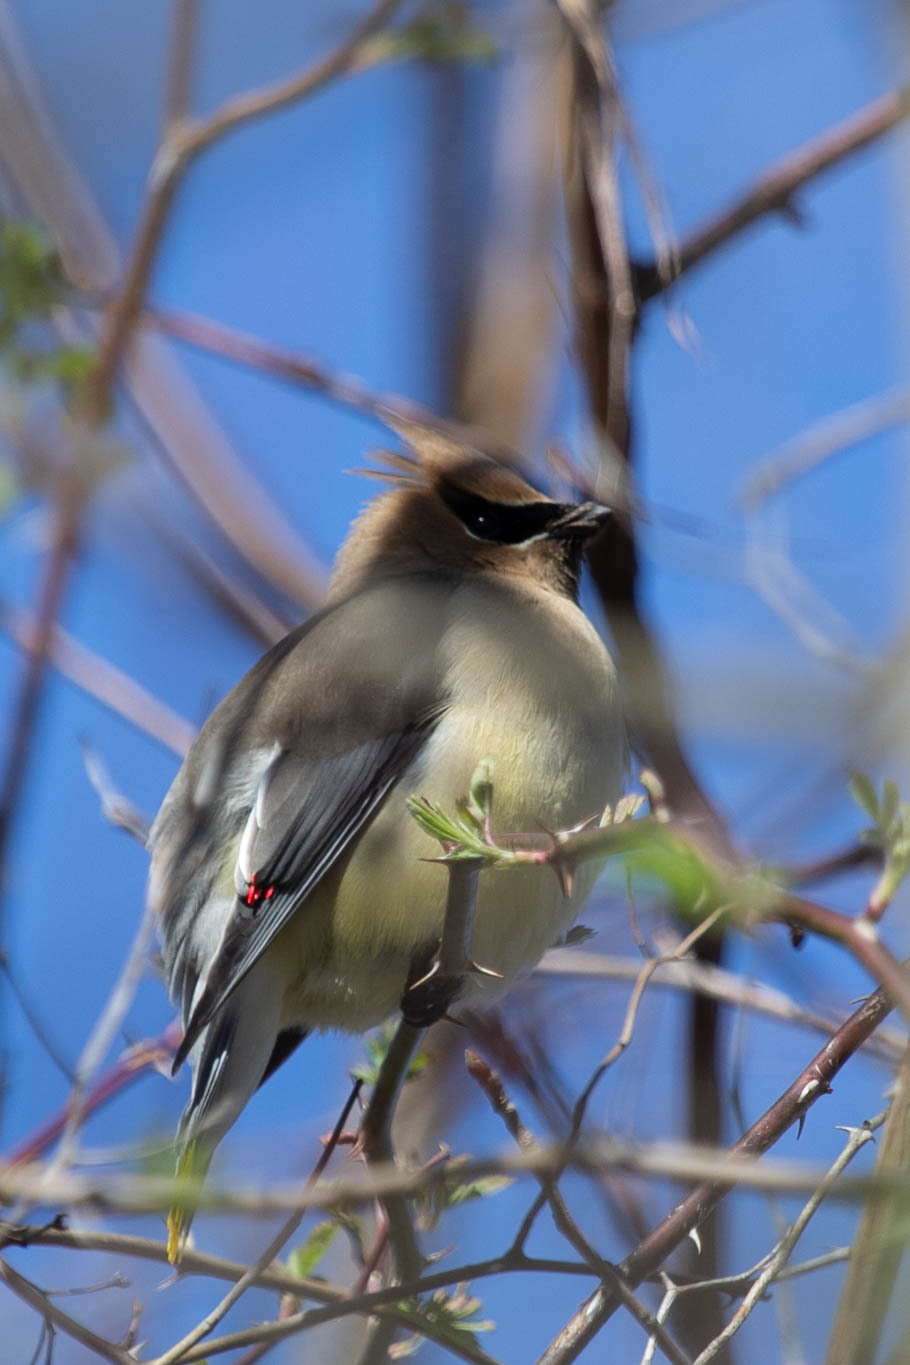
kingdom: Animalia
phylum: Chordata
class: Aves
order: Passeriformes
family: Bombycillidae
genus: Bombycilla
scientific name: Bombycilla cedrorum
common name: Cedar waxwing
